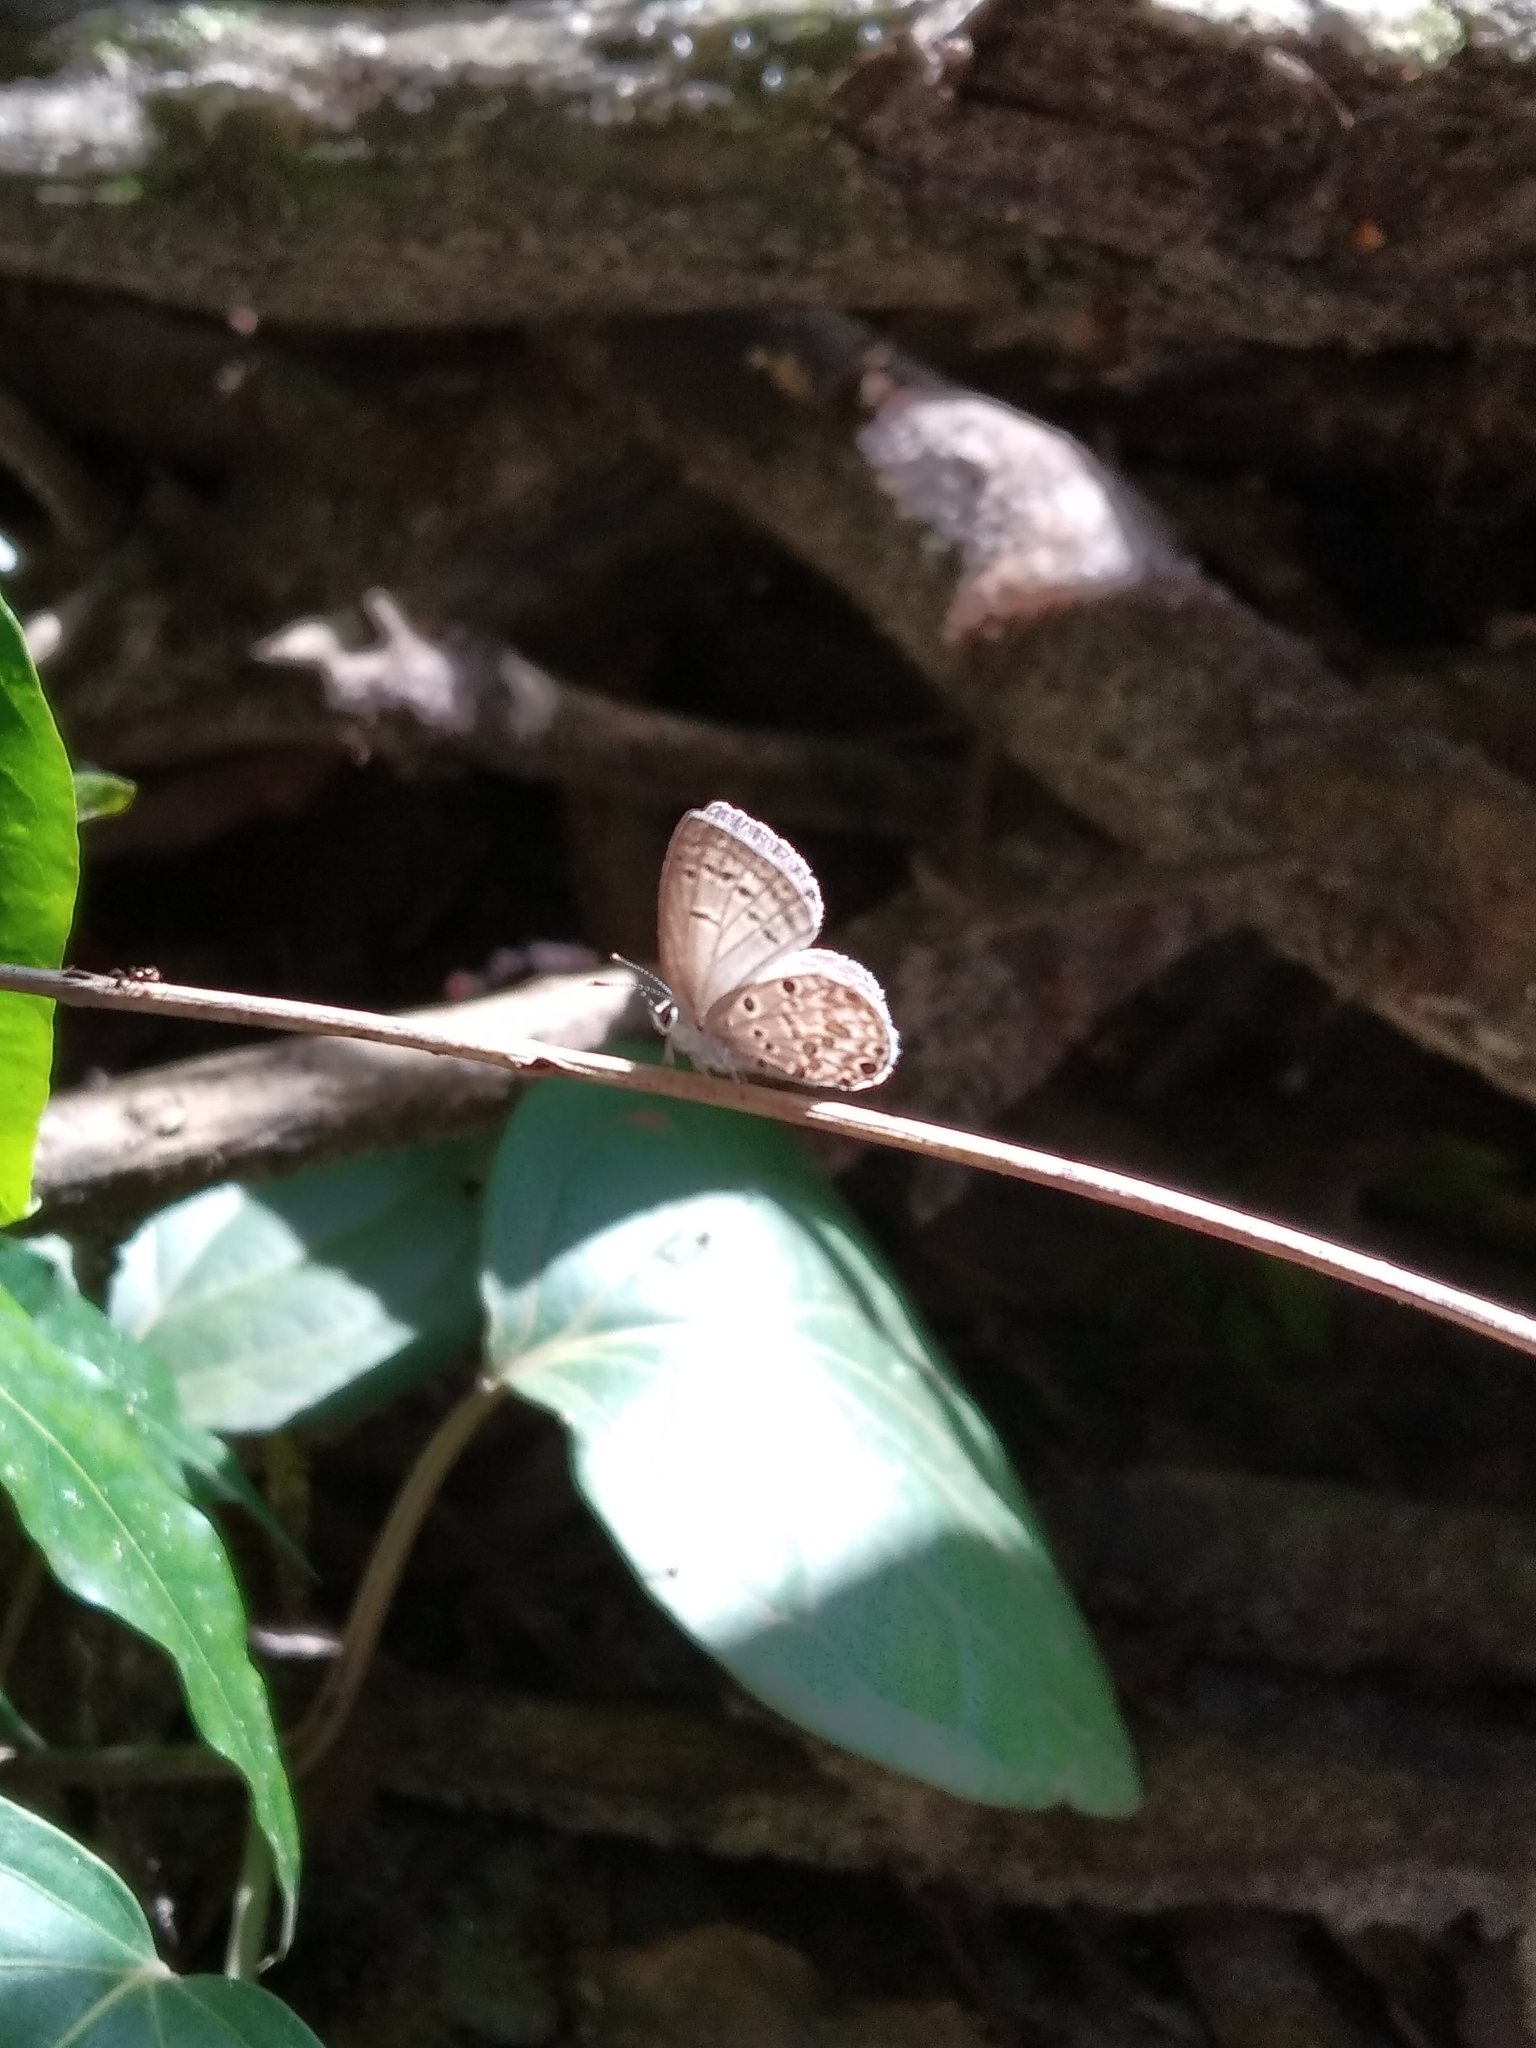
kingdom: Animalia
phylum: Arthropoda
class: Insecta
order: Lepidoptera
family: Lycaenidae
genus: Chilades
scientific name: Chilades laius
